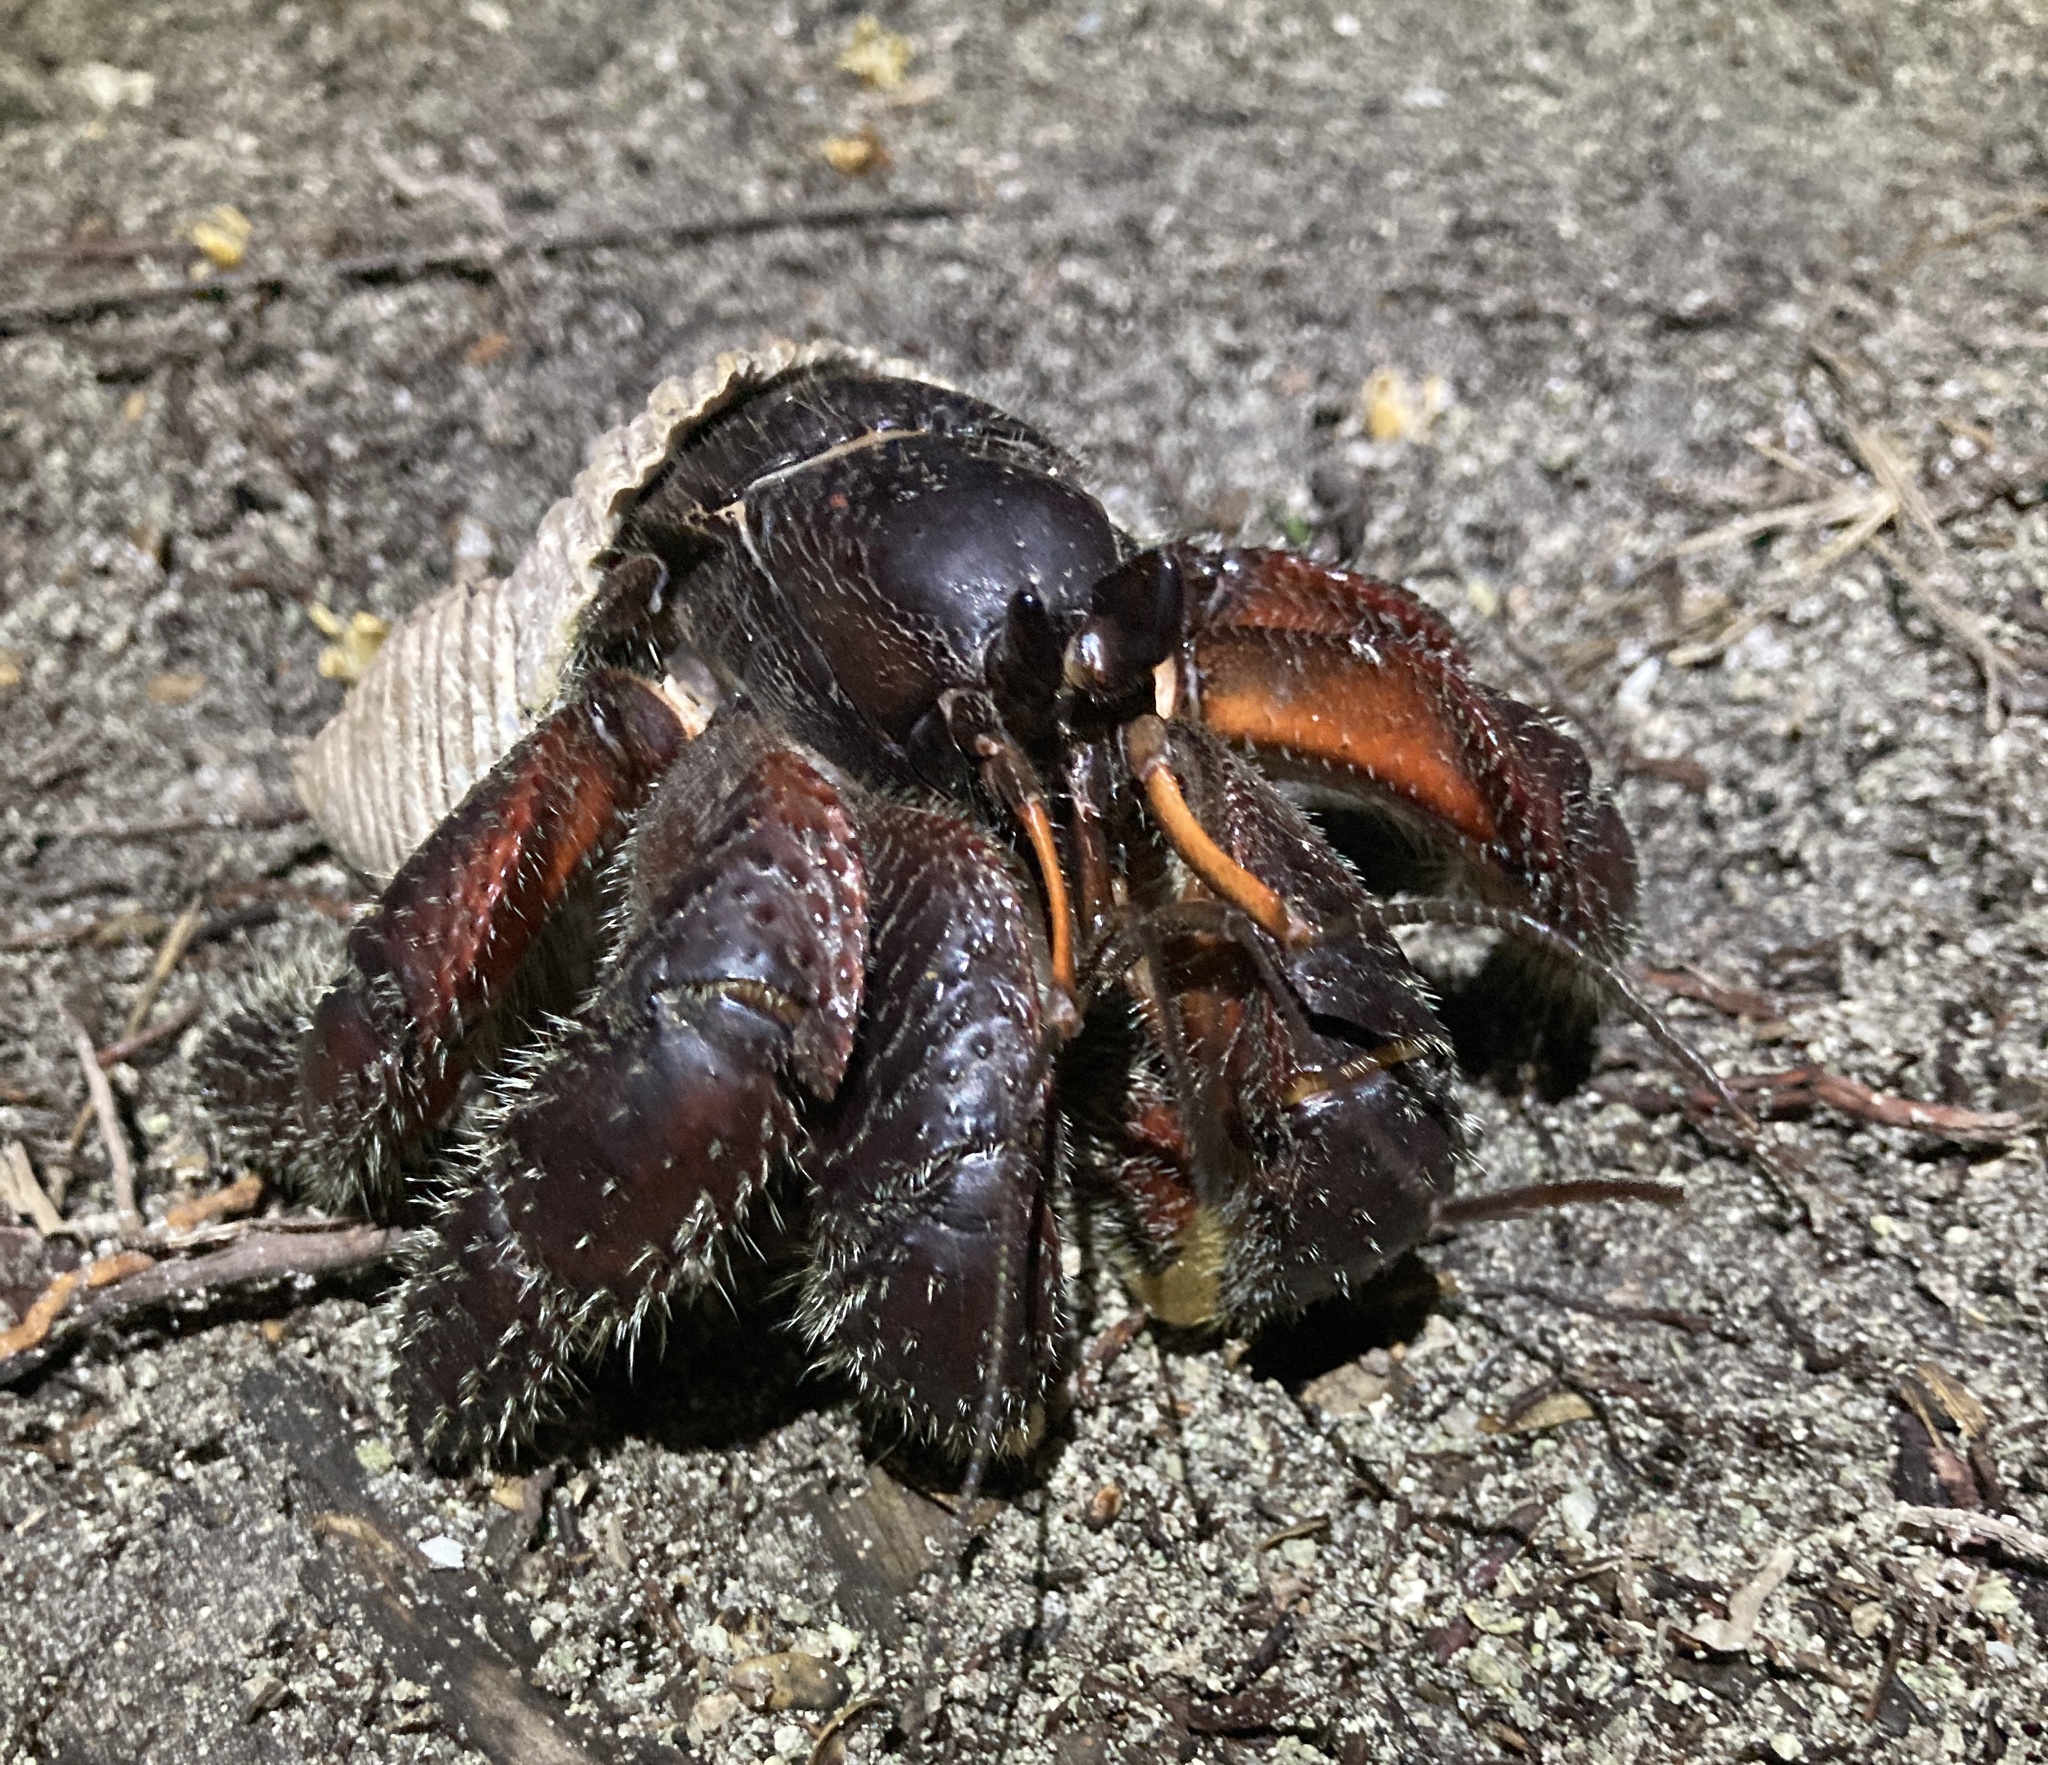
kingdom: Animalia
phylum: Arthropoda
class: Malacostraca
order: Decapoda
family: Coenobitidae
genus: Coenobita
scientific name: Coenobita spinosus
